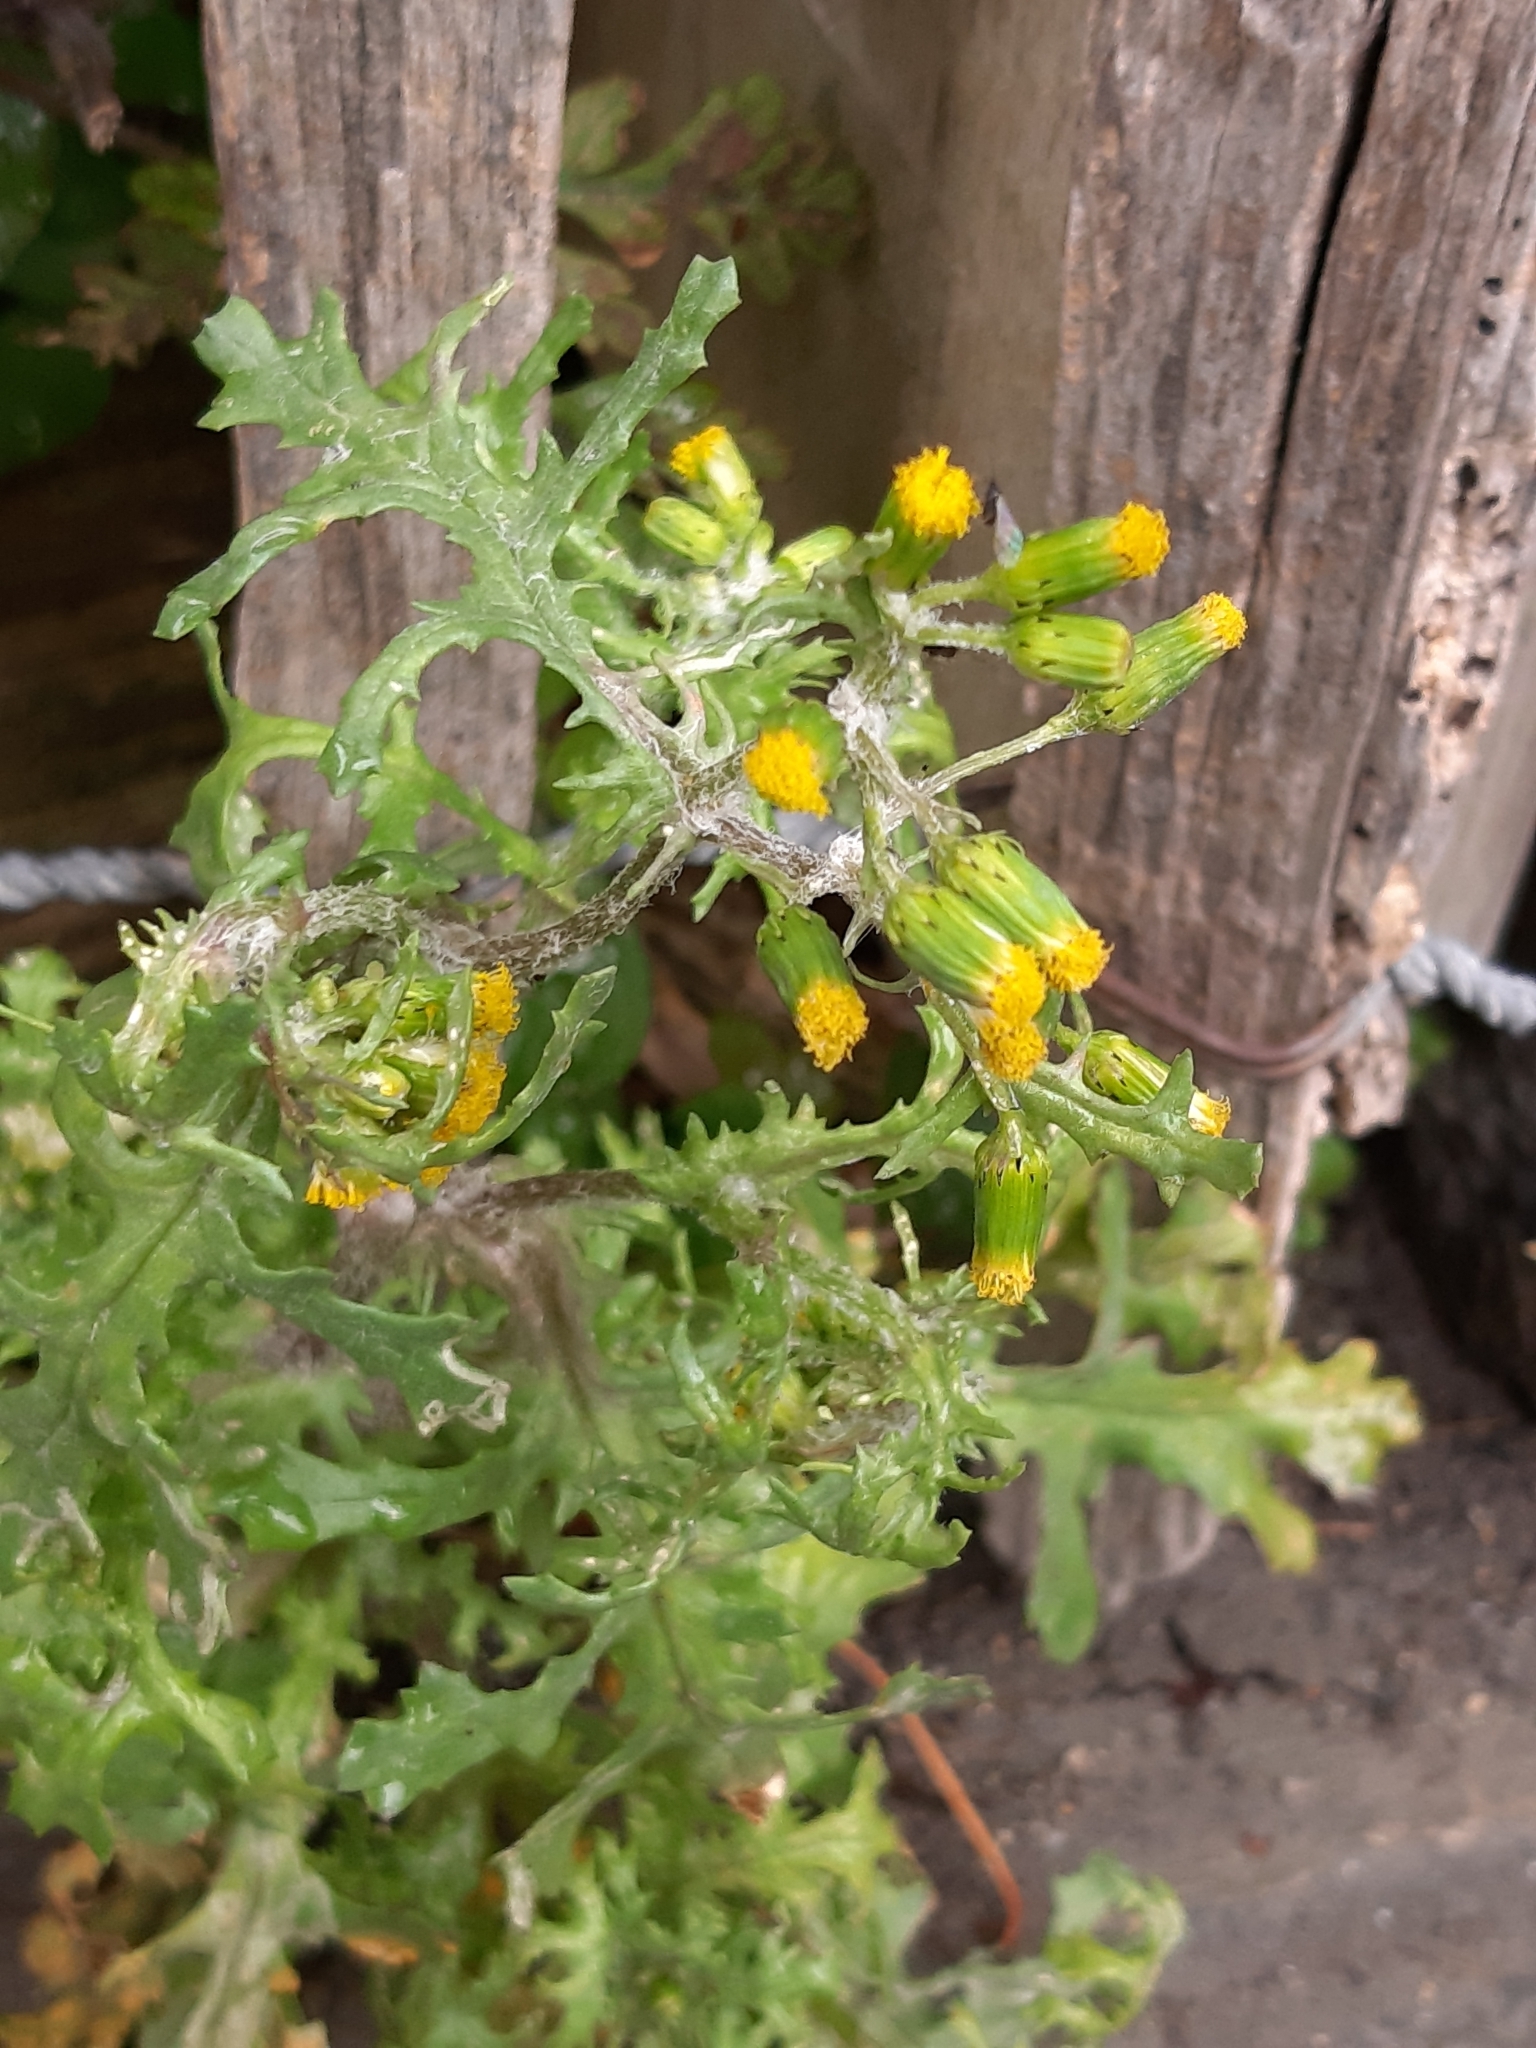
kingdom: Plantae
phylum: Tracheophyta
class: Magnoliopsida
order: Asterales
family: Asteraceae
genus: Senecio
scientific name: Senecio vulgaris
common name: Old-man-in-the-spring
